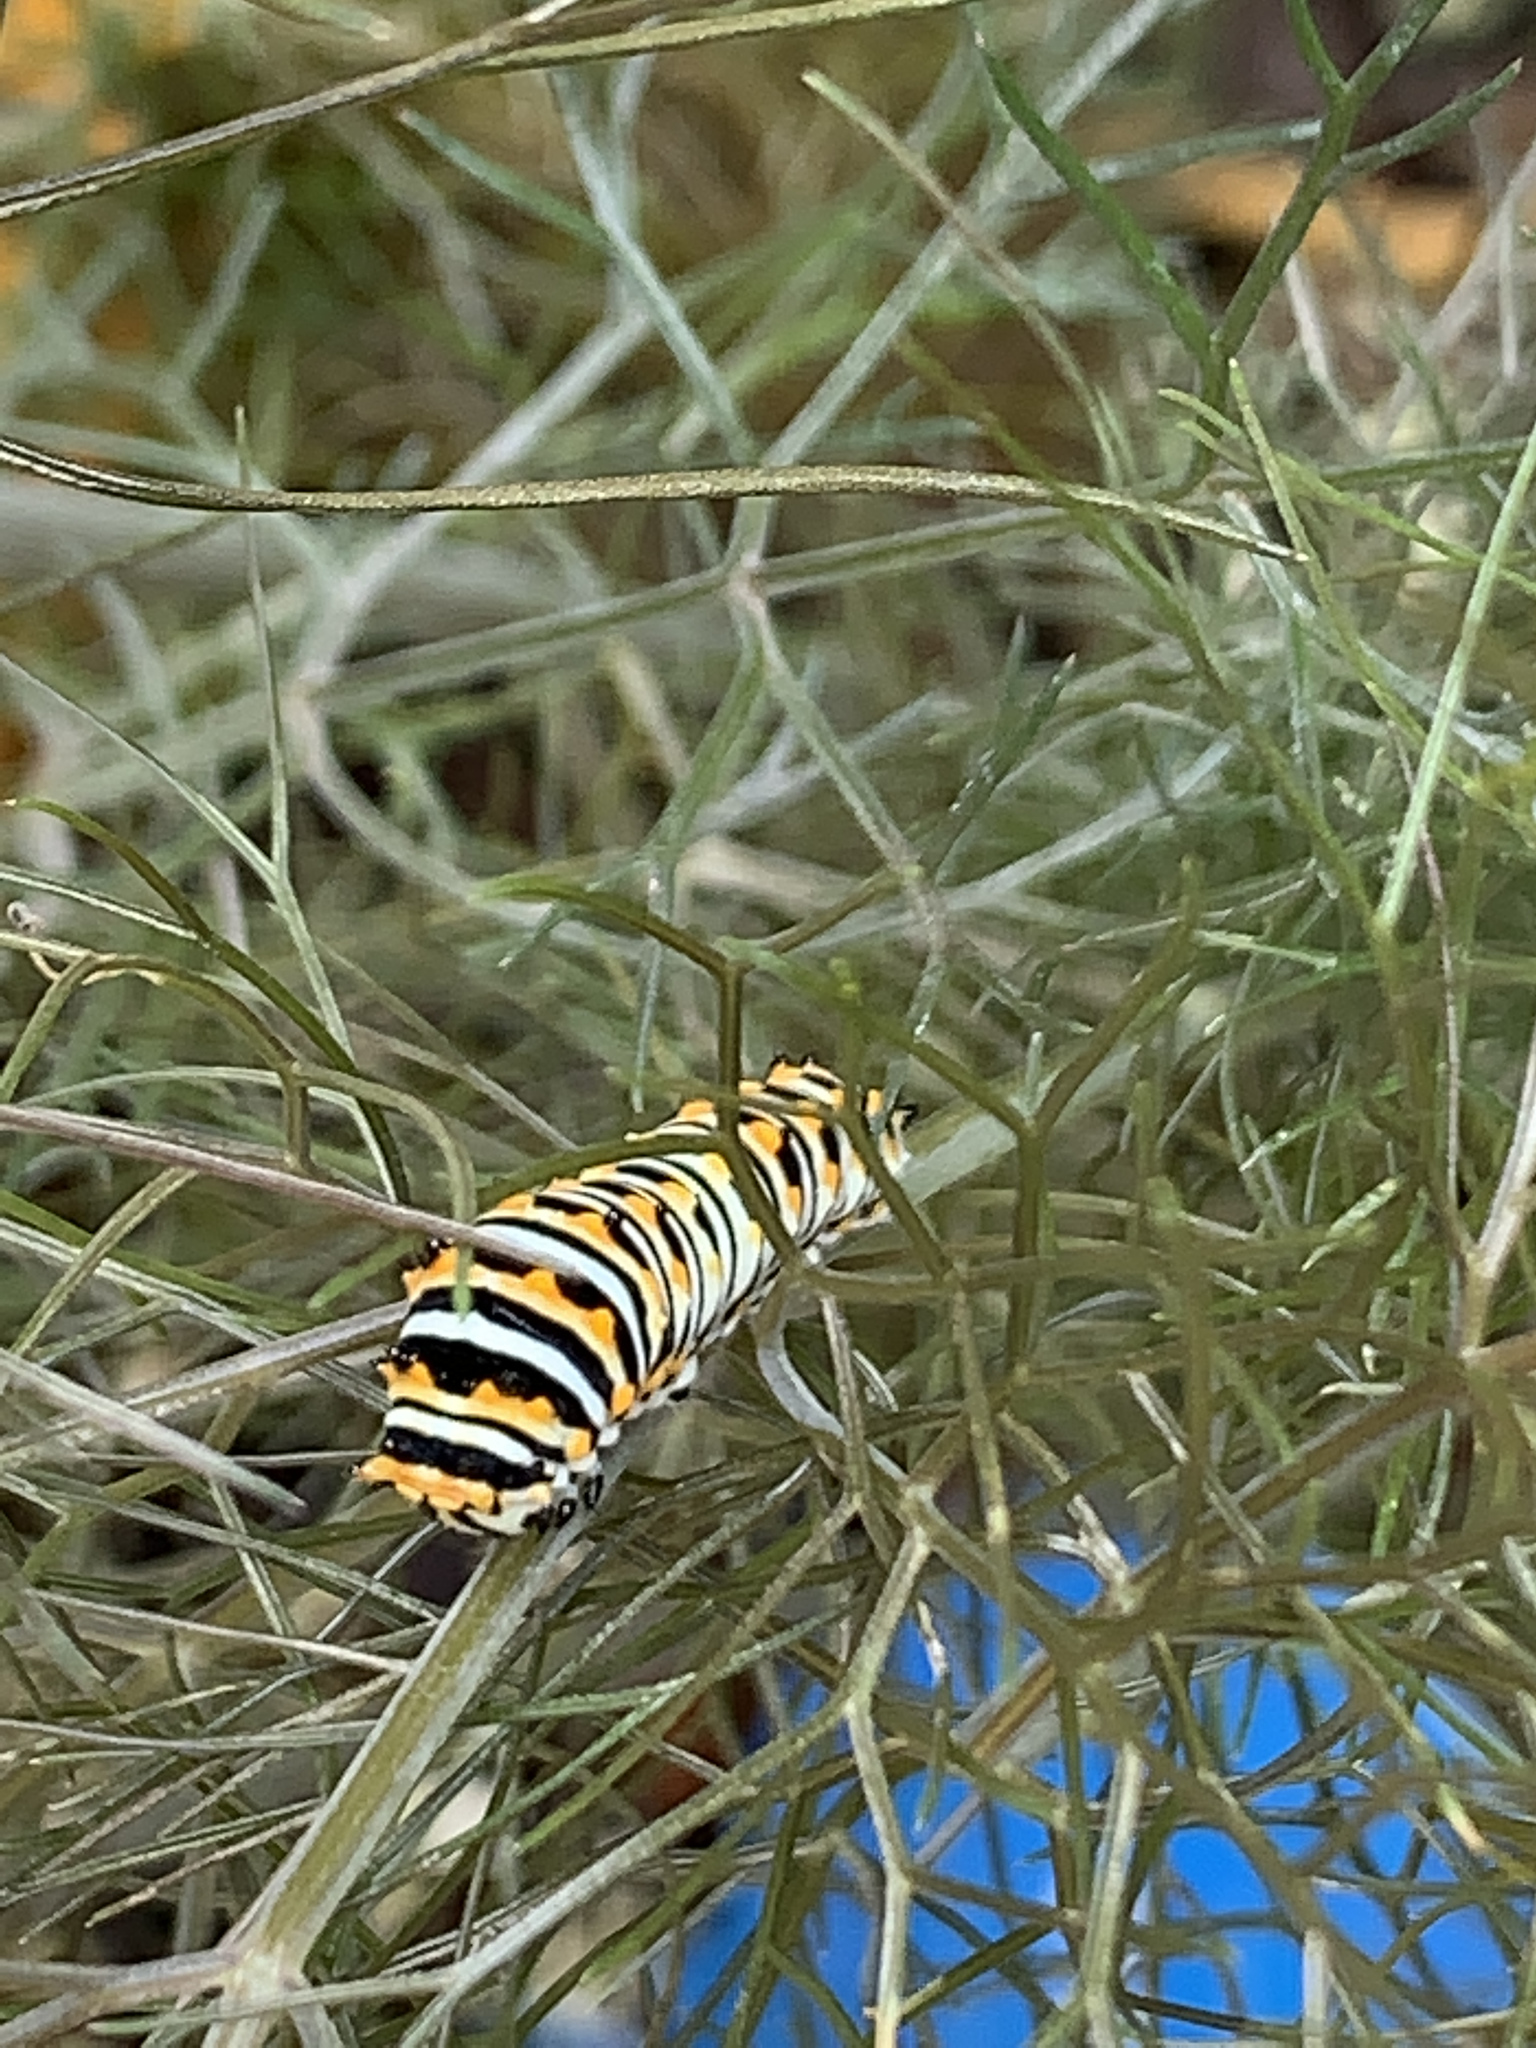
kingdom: Animalia
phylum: Arthropoda
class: Insecta
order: Lepidoptera
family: Papilionidae
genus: Papilio
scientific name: Papilio polyxenes
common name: Black swallowtail
